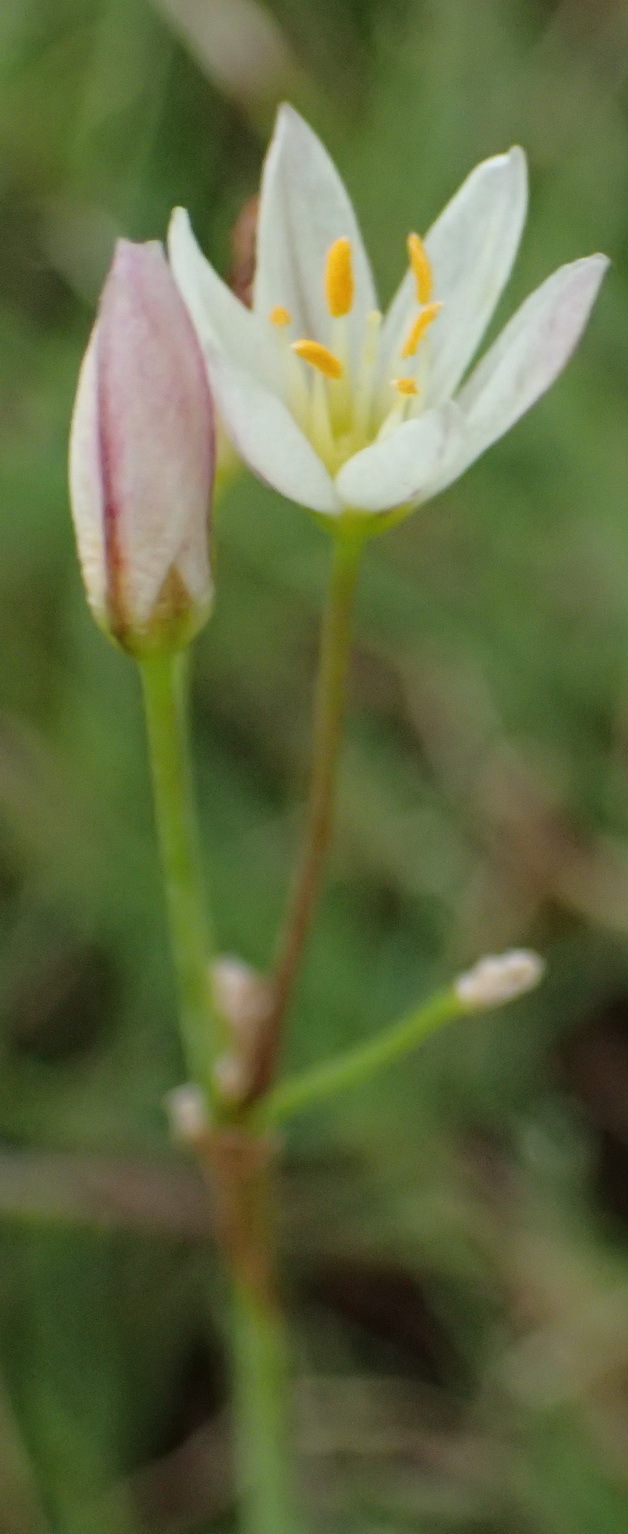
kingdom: Plantae
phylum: Tracheophyta
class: Liliopsida
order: Asparagales
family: Amaryllidaceae
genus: Nothoscordum
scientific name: Nothoscordum bivalve
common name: Crow-poison
